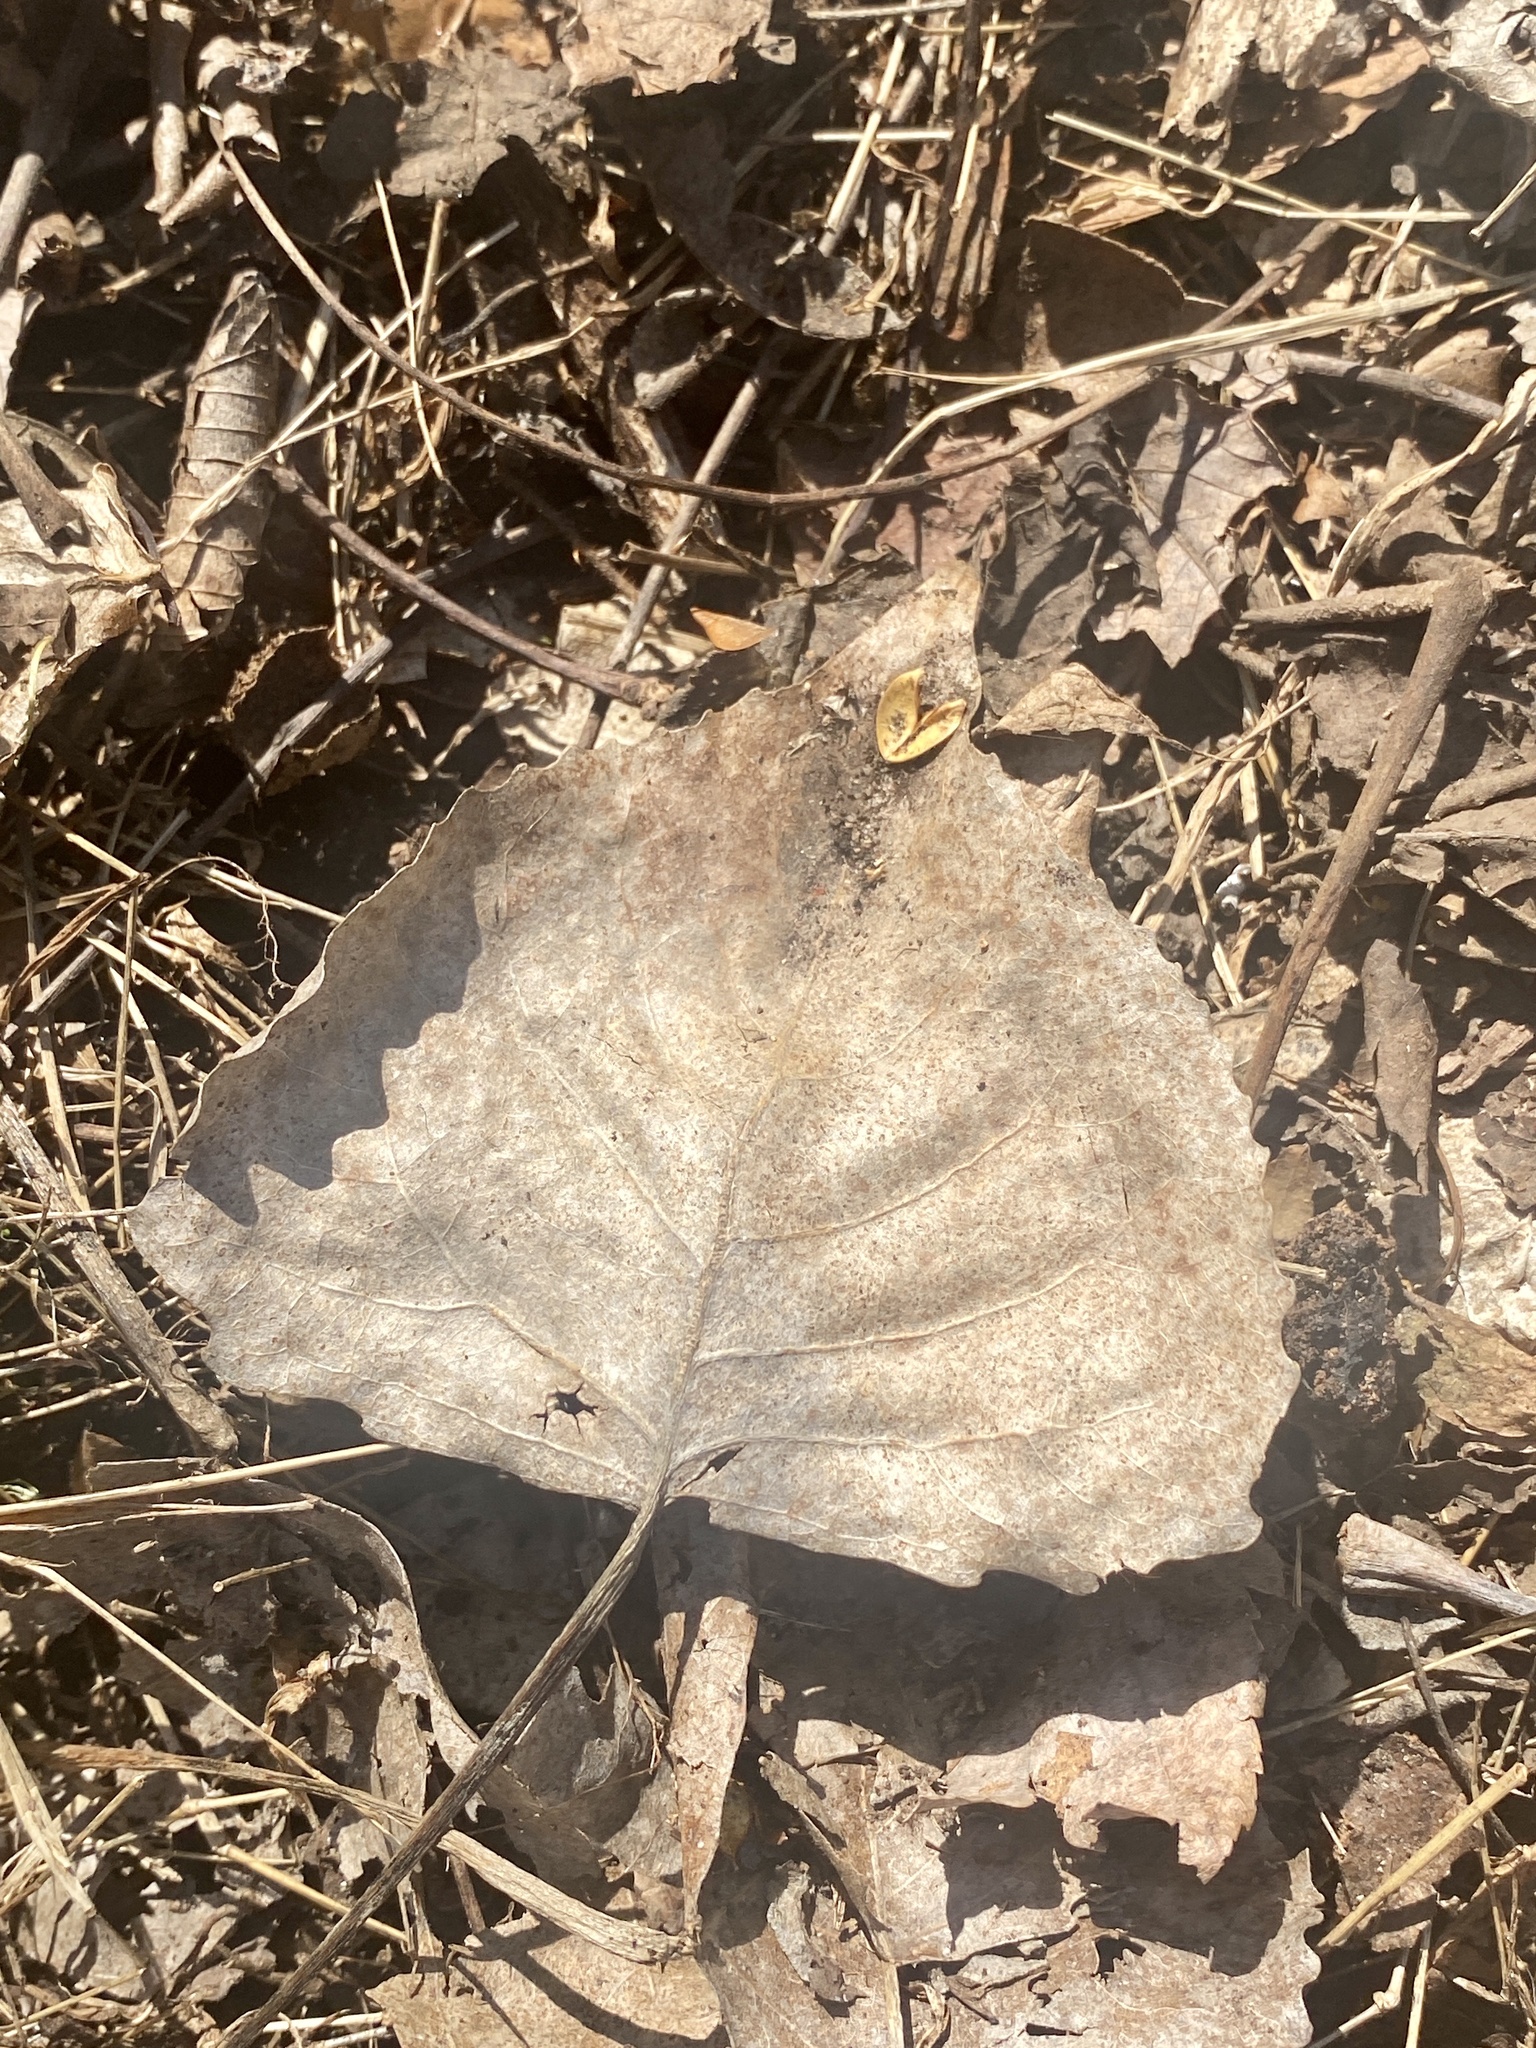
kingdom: Plantae
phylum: Tracheophyta
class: Magnoliopsida
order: Malpighiales
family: Salicaceae
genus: Populus
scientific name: Populus deltoides
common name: Eastern cottonwood
